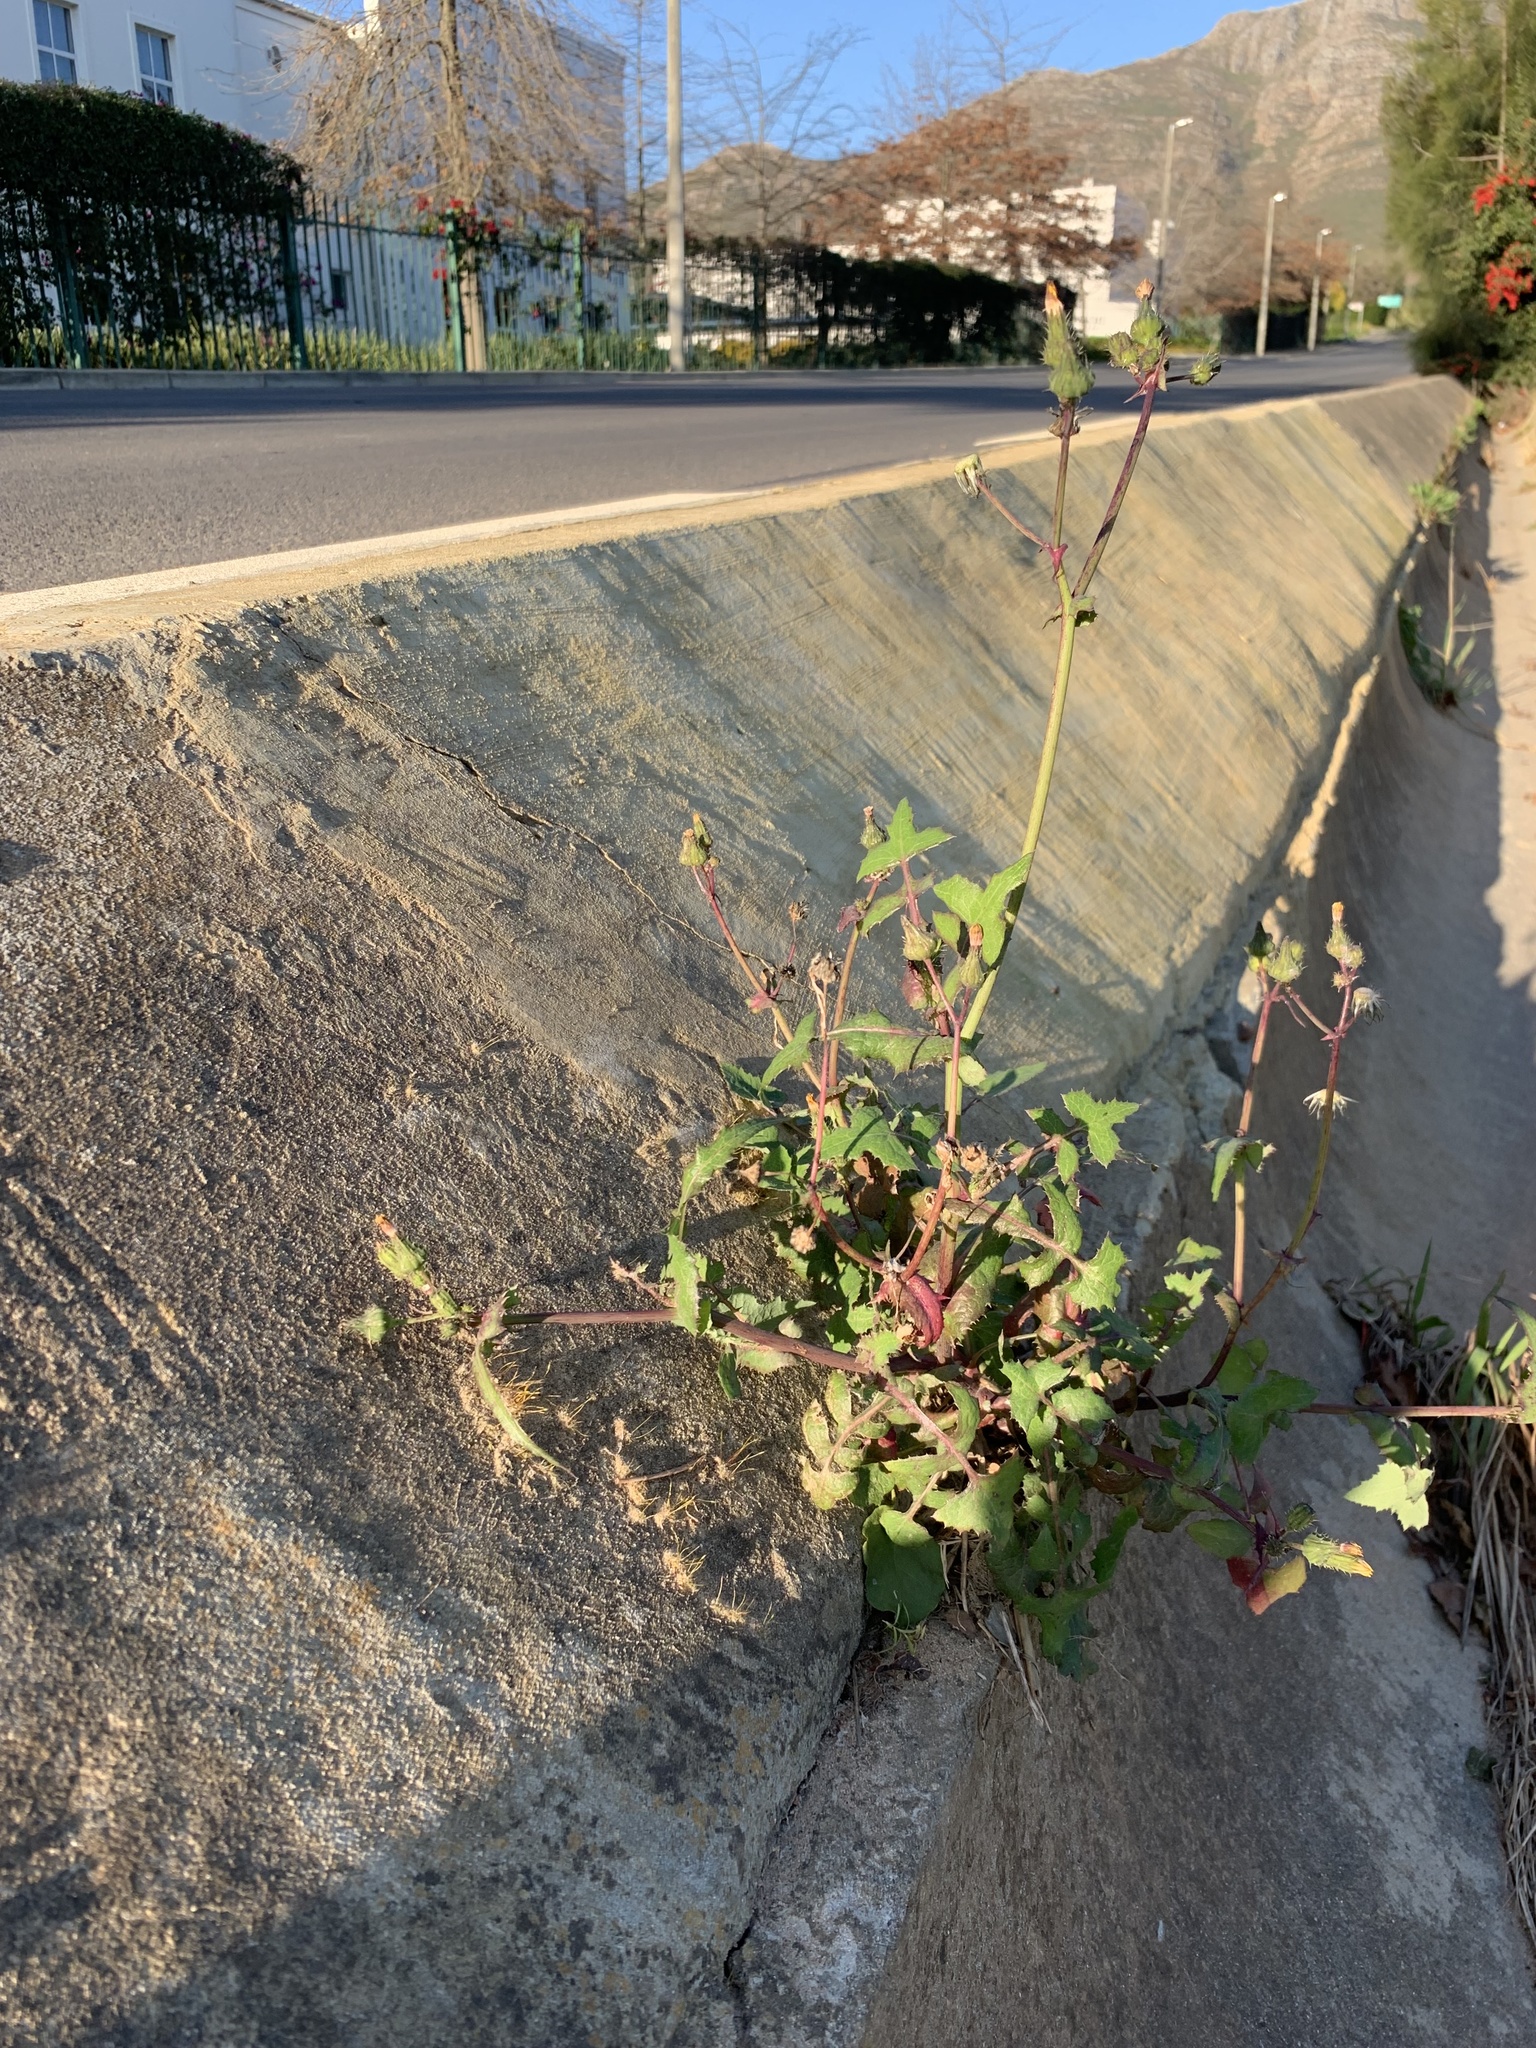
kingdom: Plantae
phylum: Tracheophyta
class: Magnoliopsida
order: Asterales
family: Asteraceae
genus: Sonchus
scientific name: Sonchus oleraceus
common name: Common sowthistle
